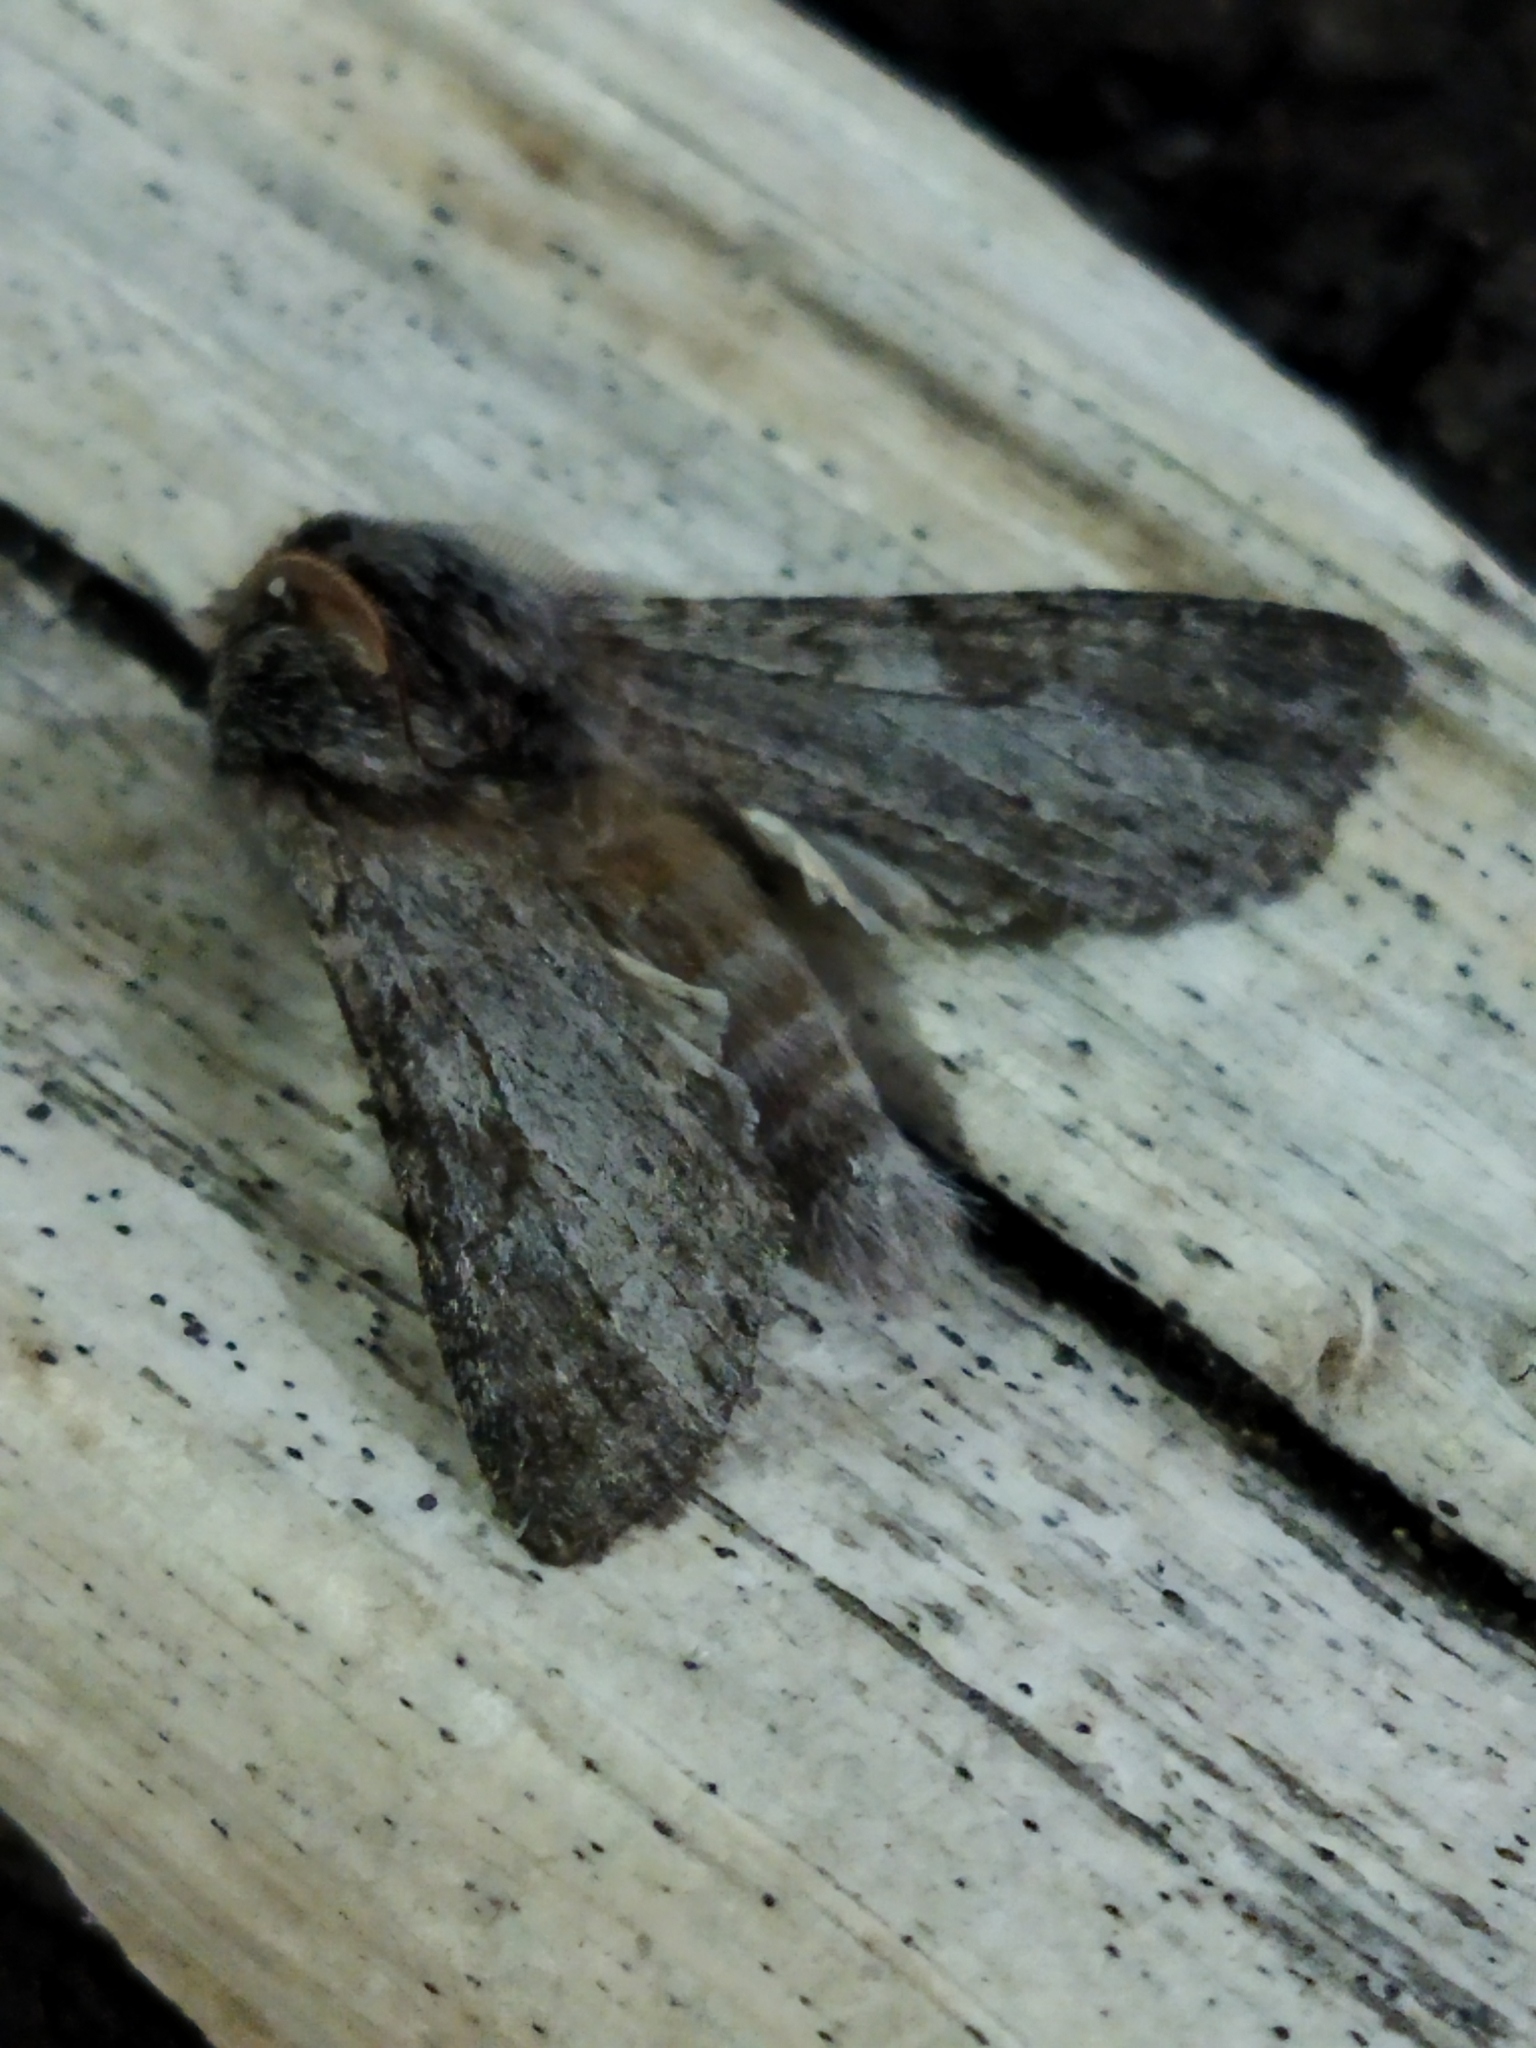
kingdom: Animalia
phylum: Arthropoda
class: Insecta
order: Lepidoptera
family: Notodontidae
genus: Dicranura
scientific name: Dicranura ulmi
